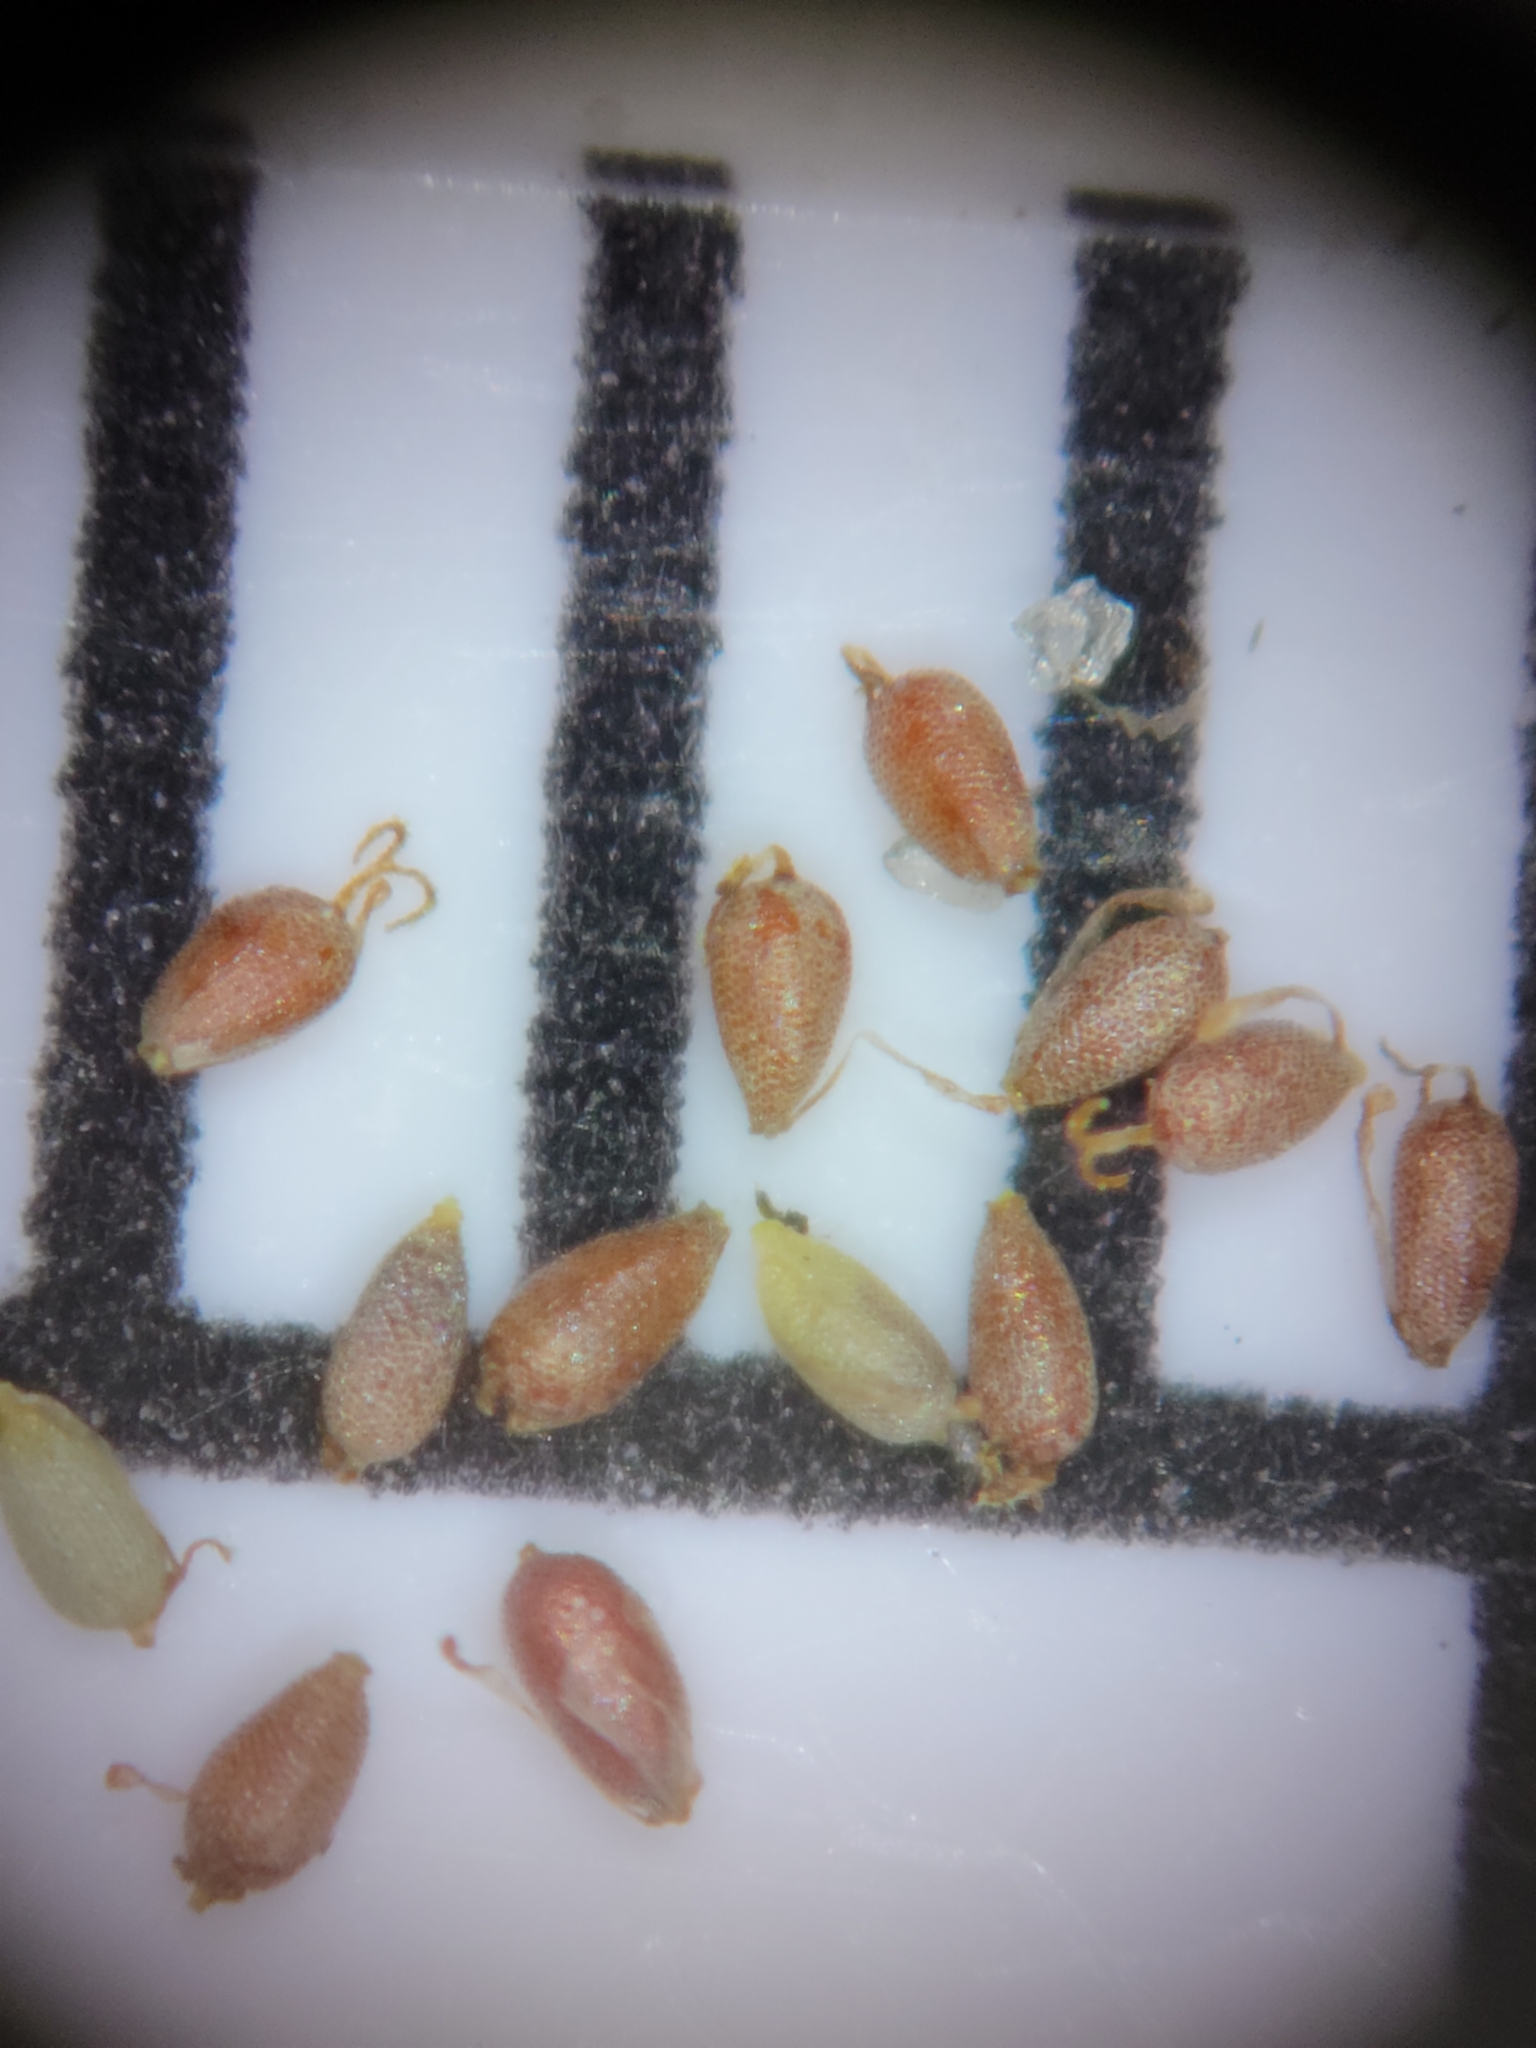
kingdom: Plantae
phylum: Tracheophyta
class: Liliopsida
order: Poales
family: Cyperaceae
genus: Cyperus
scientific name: Cyperus subsquarrosus
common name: Dwarf bulrush
